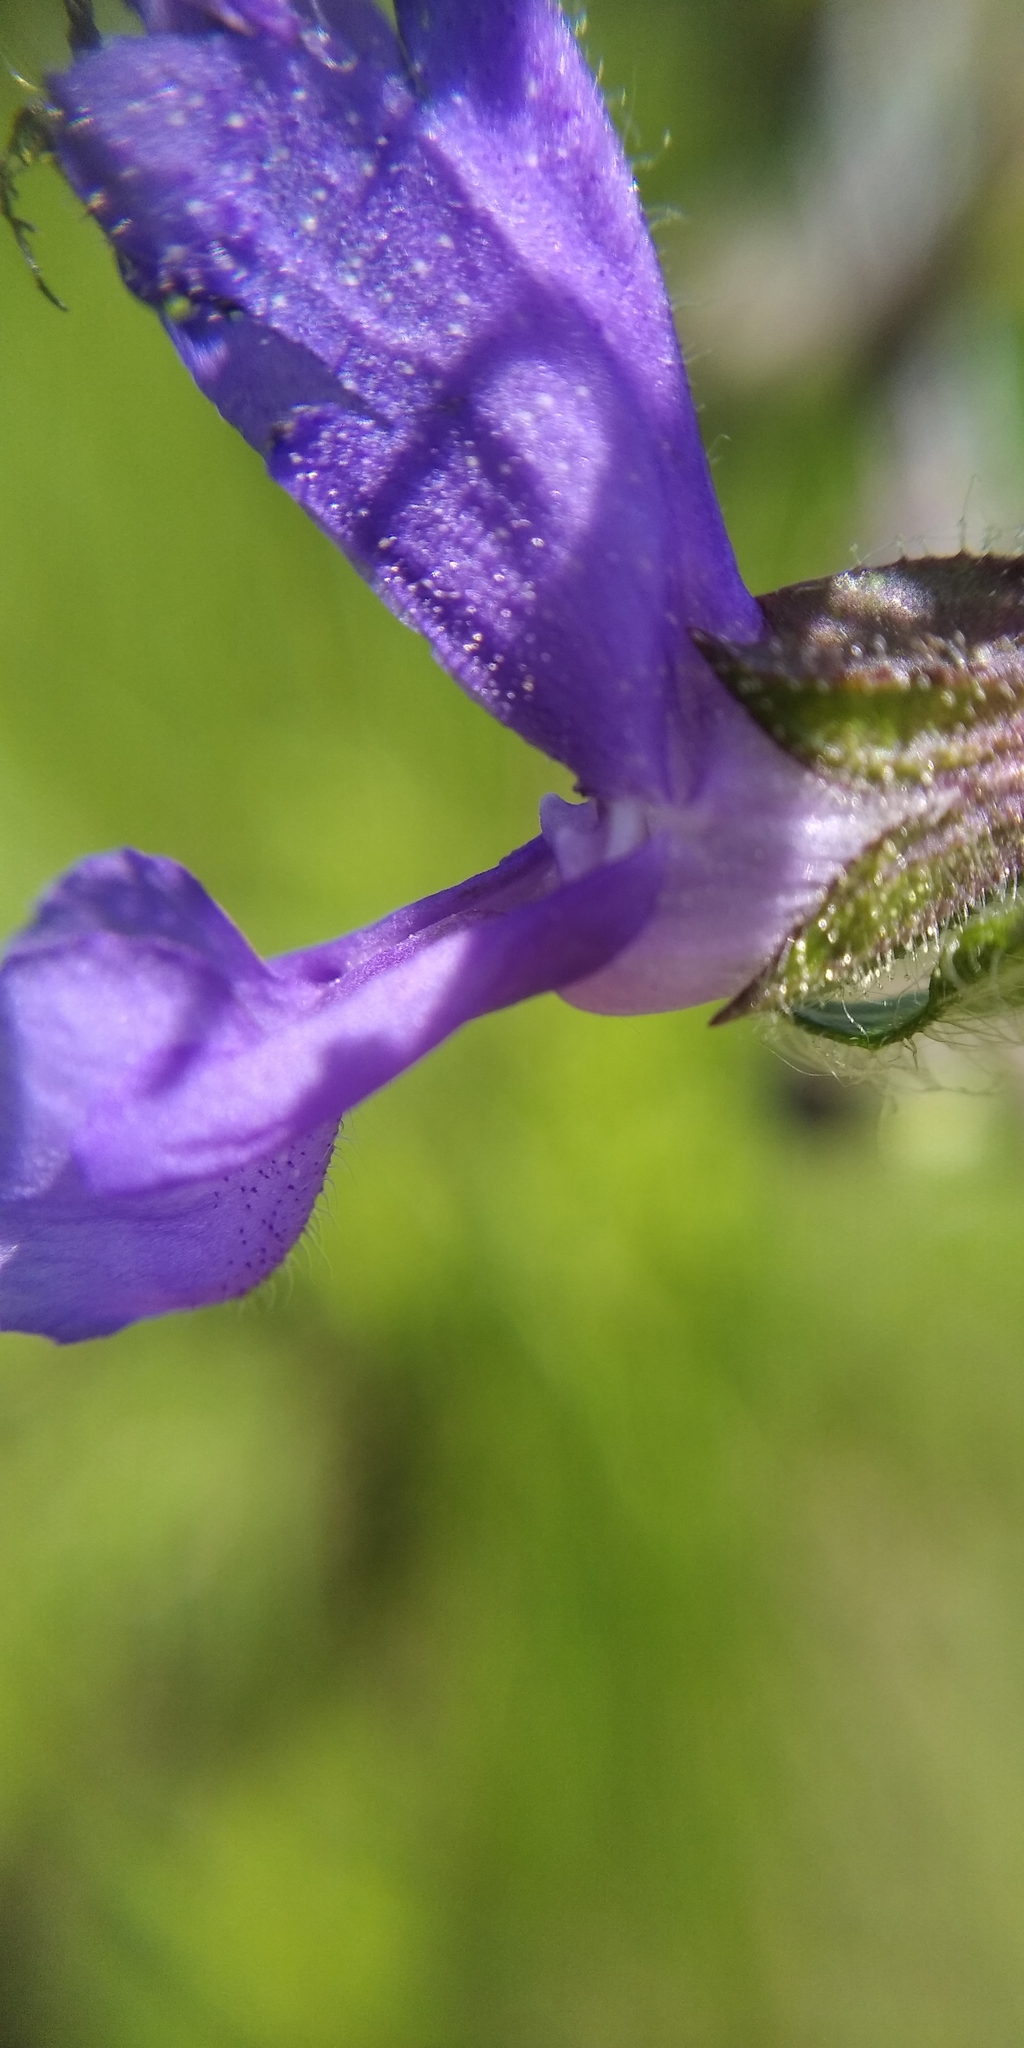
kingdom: Plantae
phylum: Tracheophyta
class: Magnoliopsida
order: Lamiales
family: Lamiaceae
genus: Salvia
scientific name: Salvia pratensis
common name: Meadow sage
